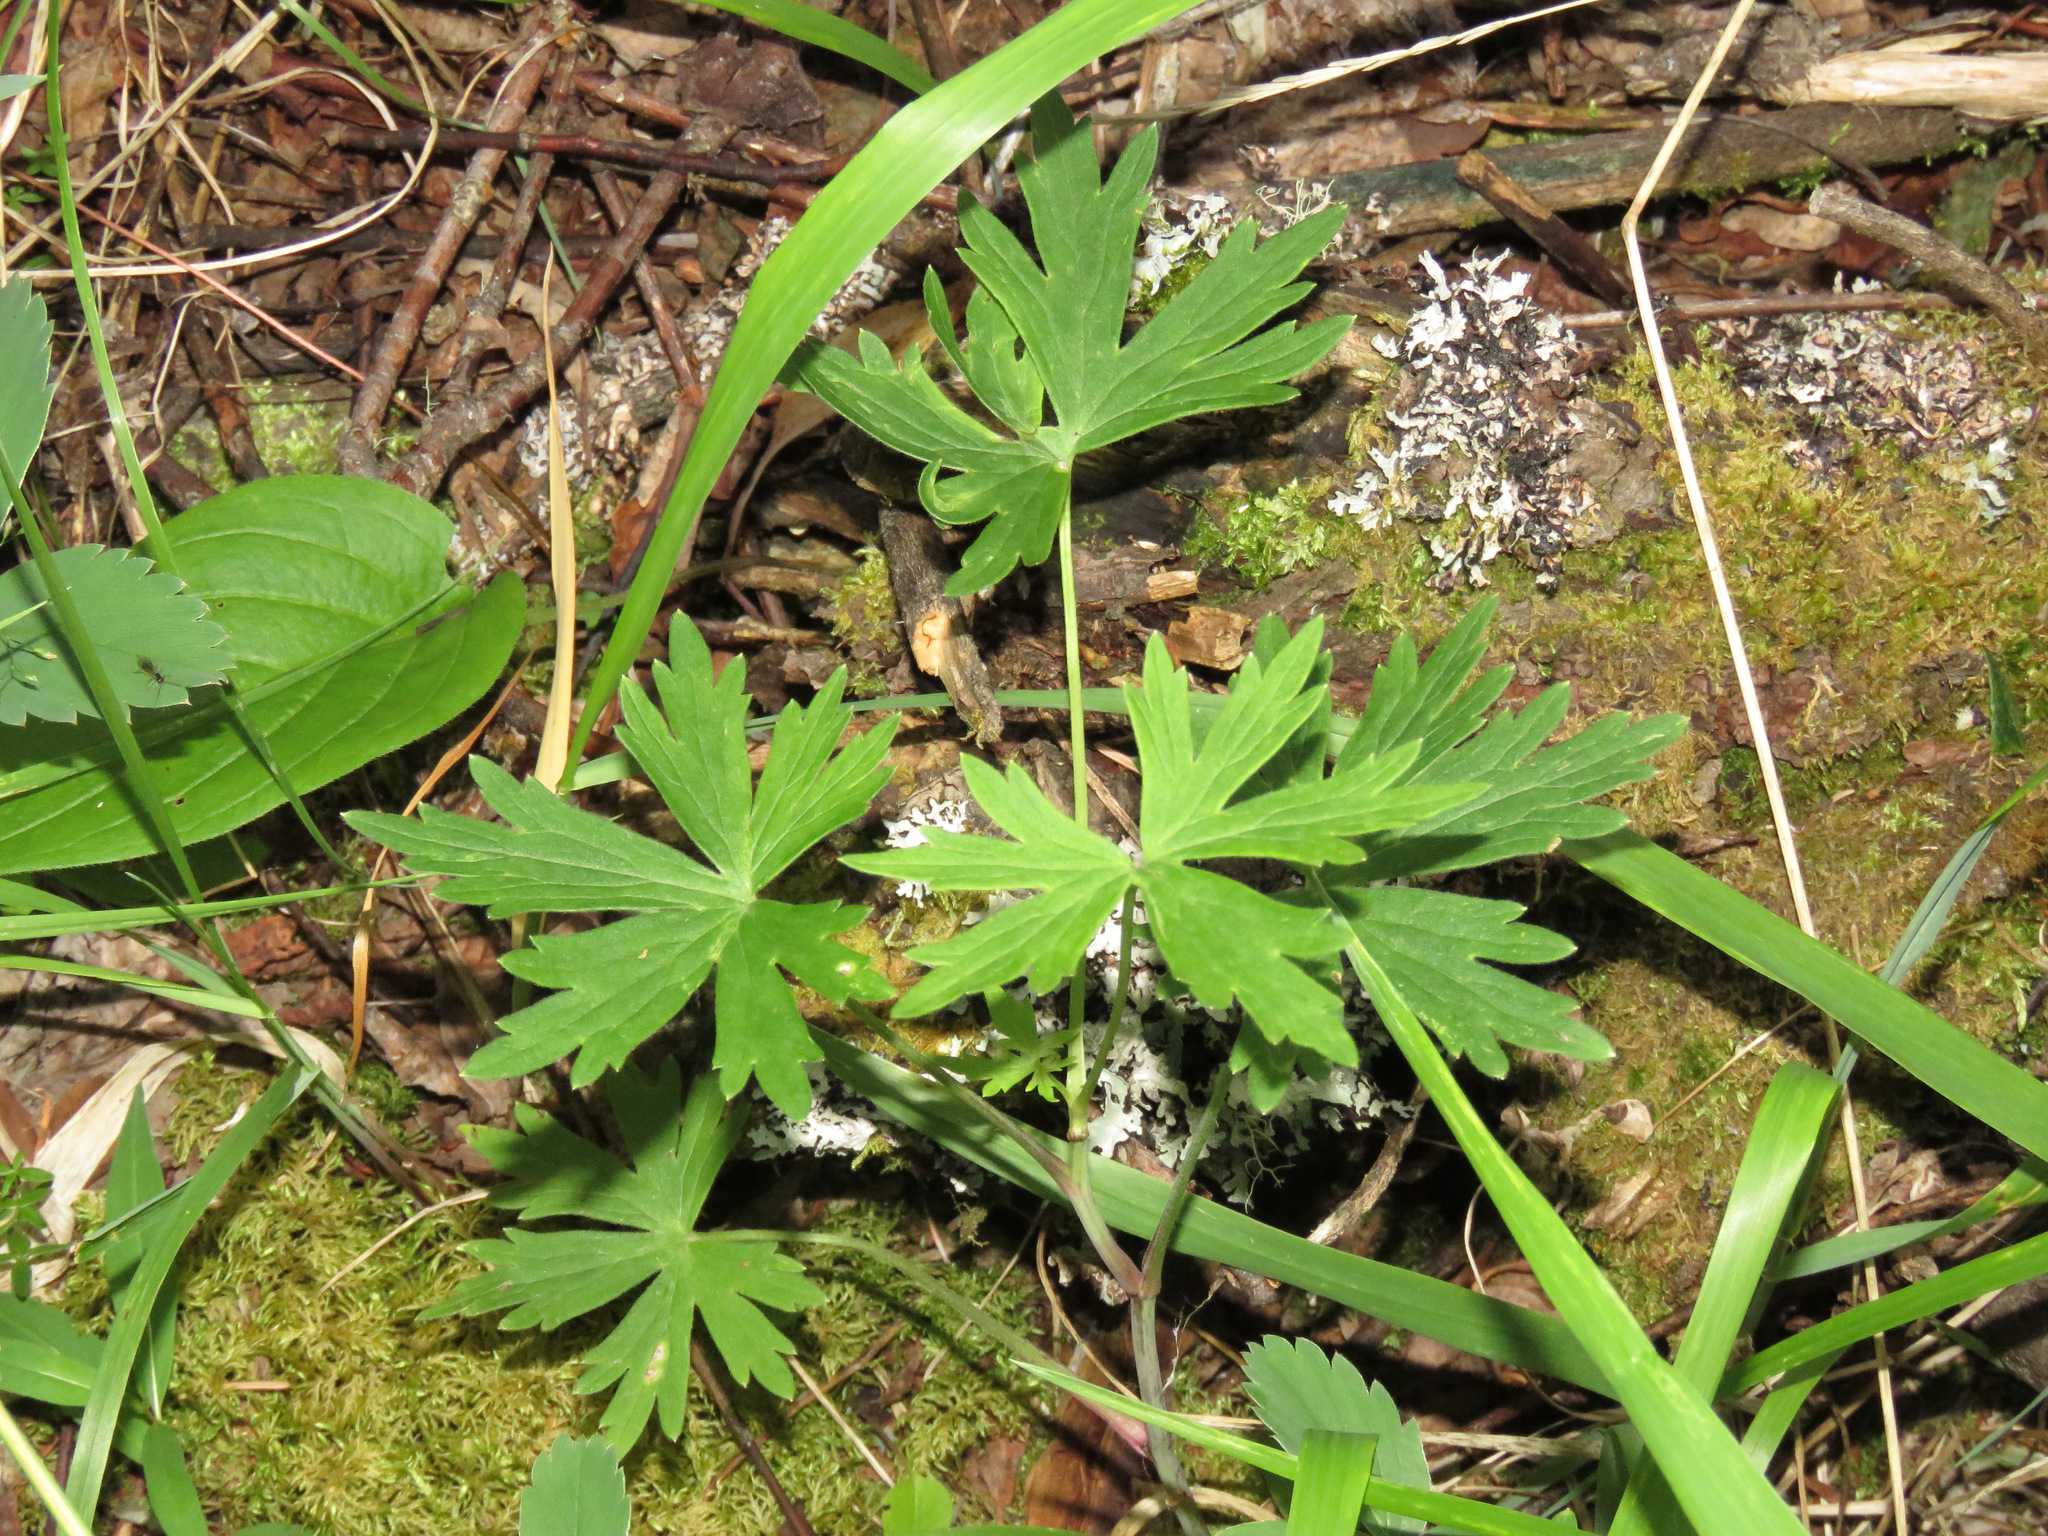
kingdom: Plantae
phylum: Tracheophyta
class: Magnoliopsida
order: Ranunculales
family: Ranunculaceae
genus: Delphinium
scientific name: Delphinium glaucum
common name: Brown's larkspur
